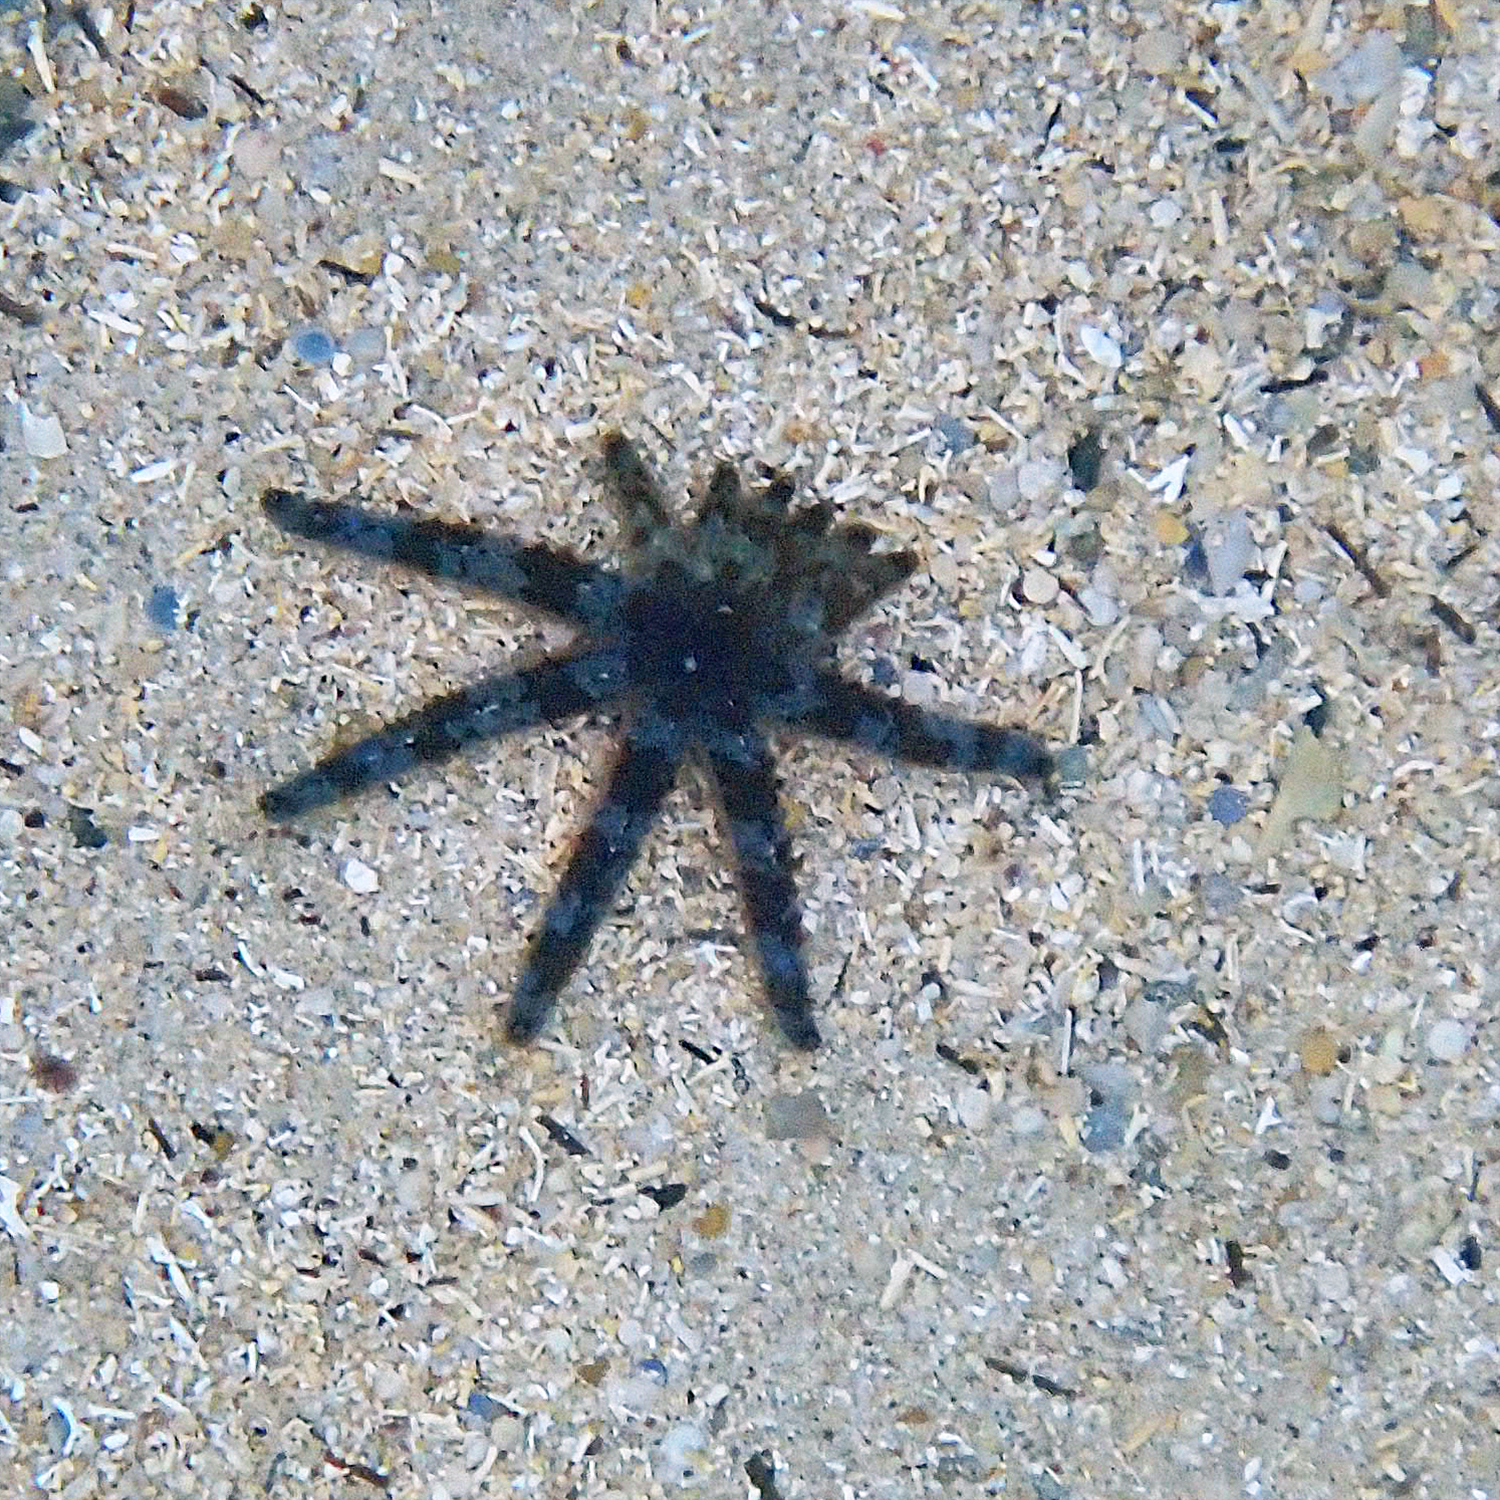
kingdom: Animalia
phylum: Echinodermata
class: Asteroidea
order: Forcipulatida
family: Asteriidae
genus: Coscinasterias
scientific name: Coscinasterias muricata
